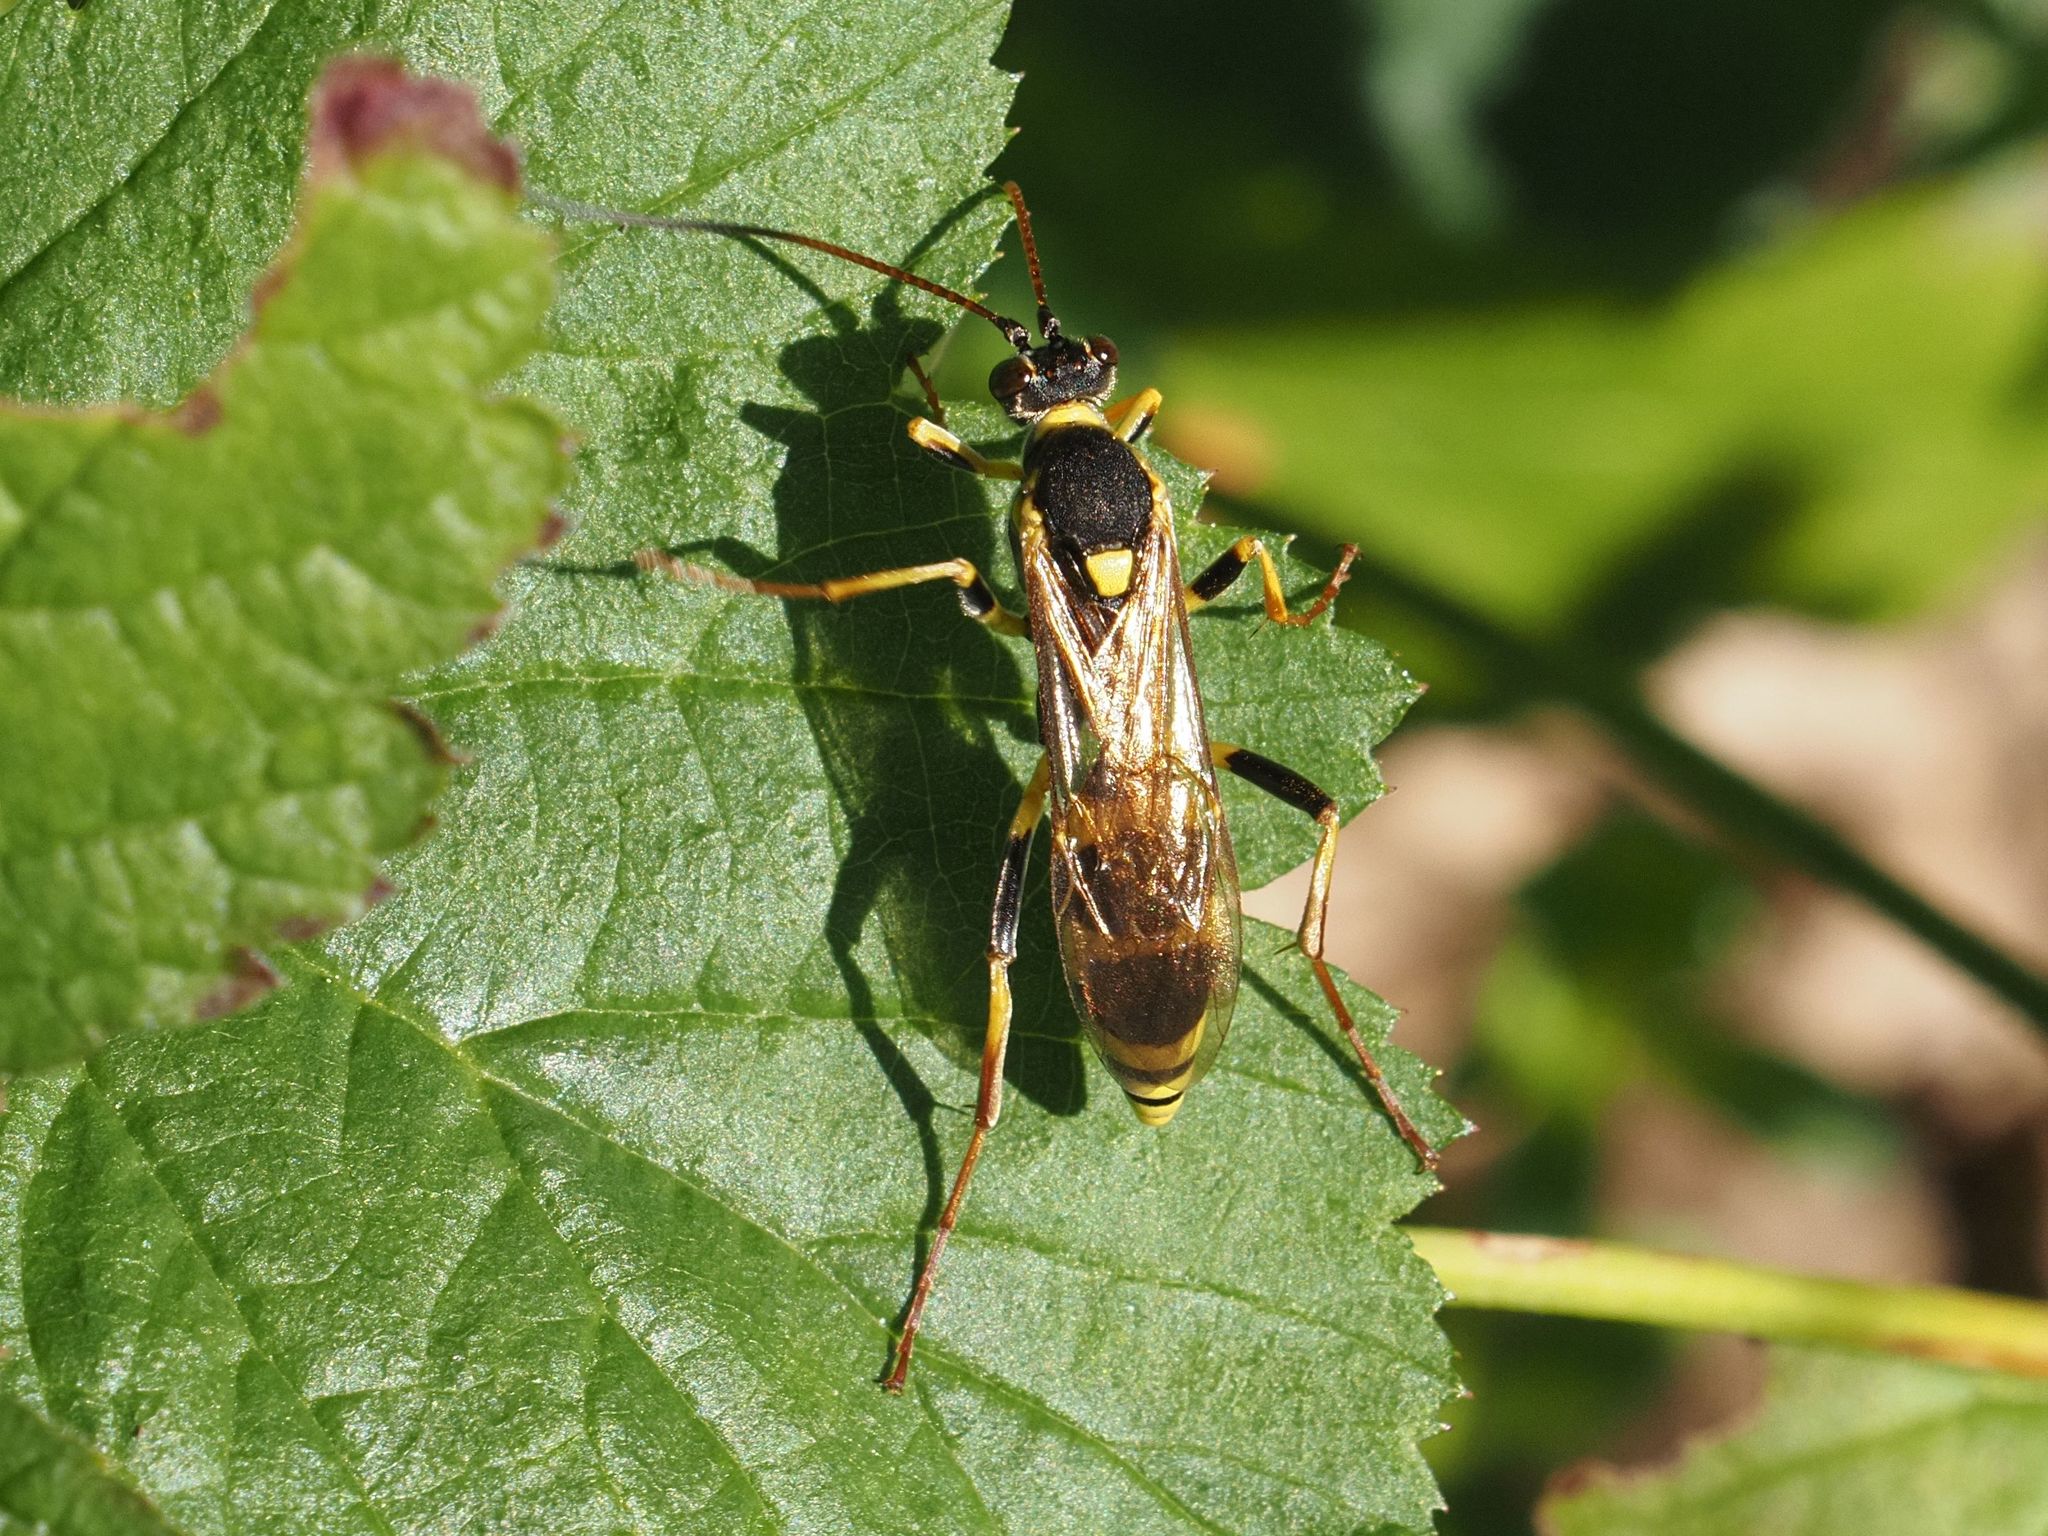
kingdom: Animalia
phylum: Arthropoda
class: Insecta
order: Hymenoptera
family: Ichneumonidae
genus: Amblyteles
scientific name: Amblyteles armatorius
